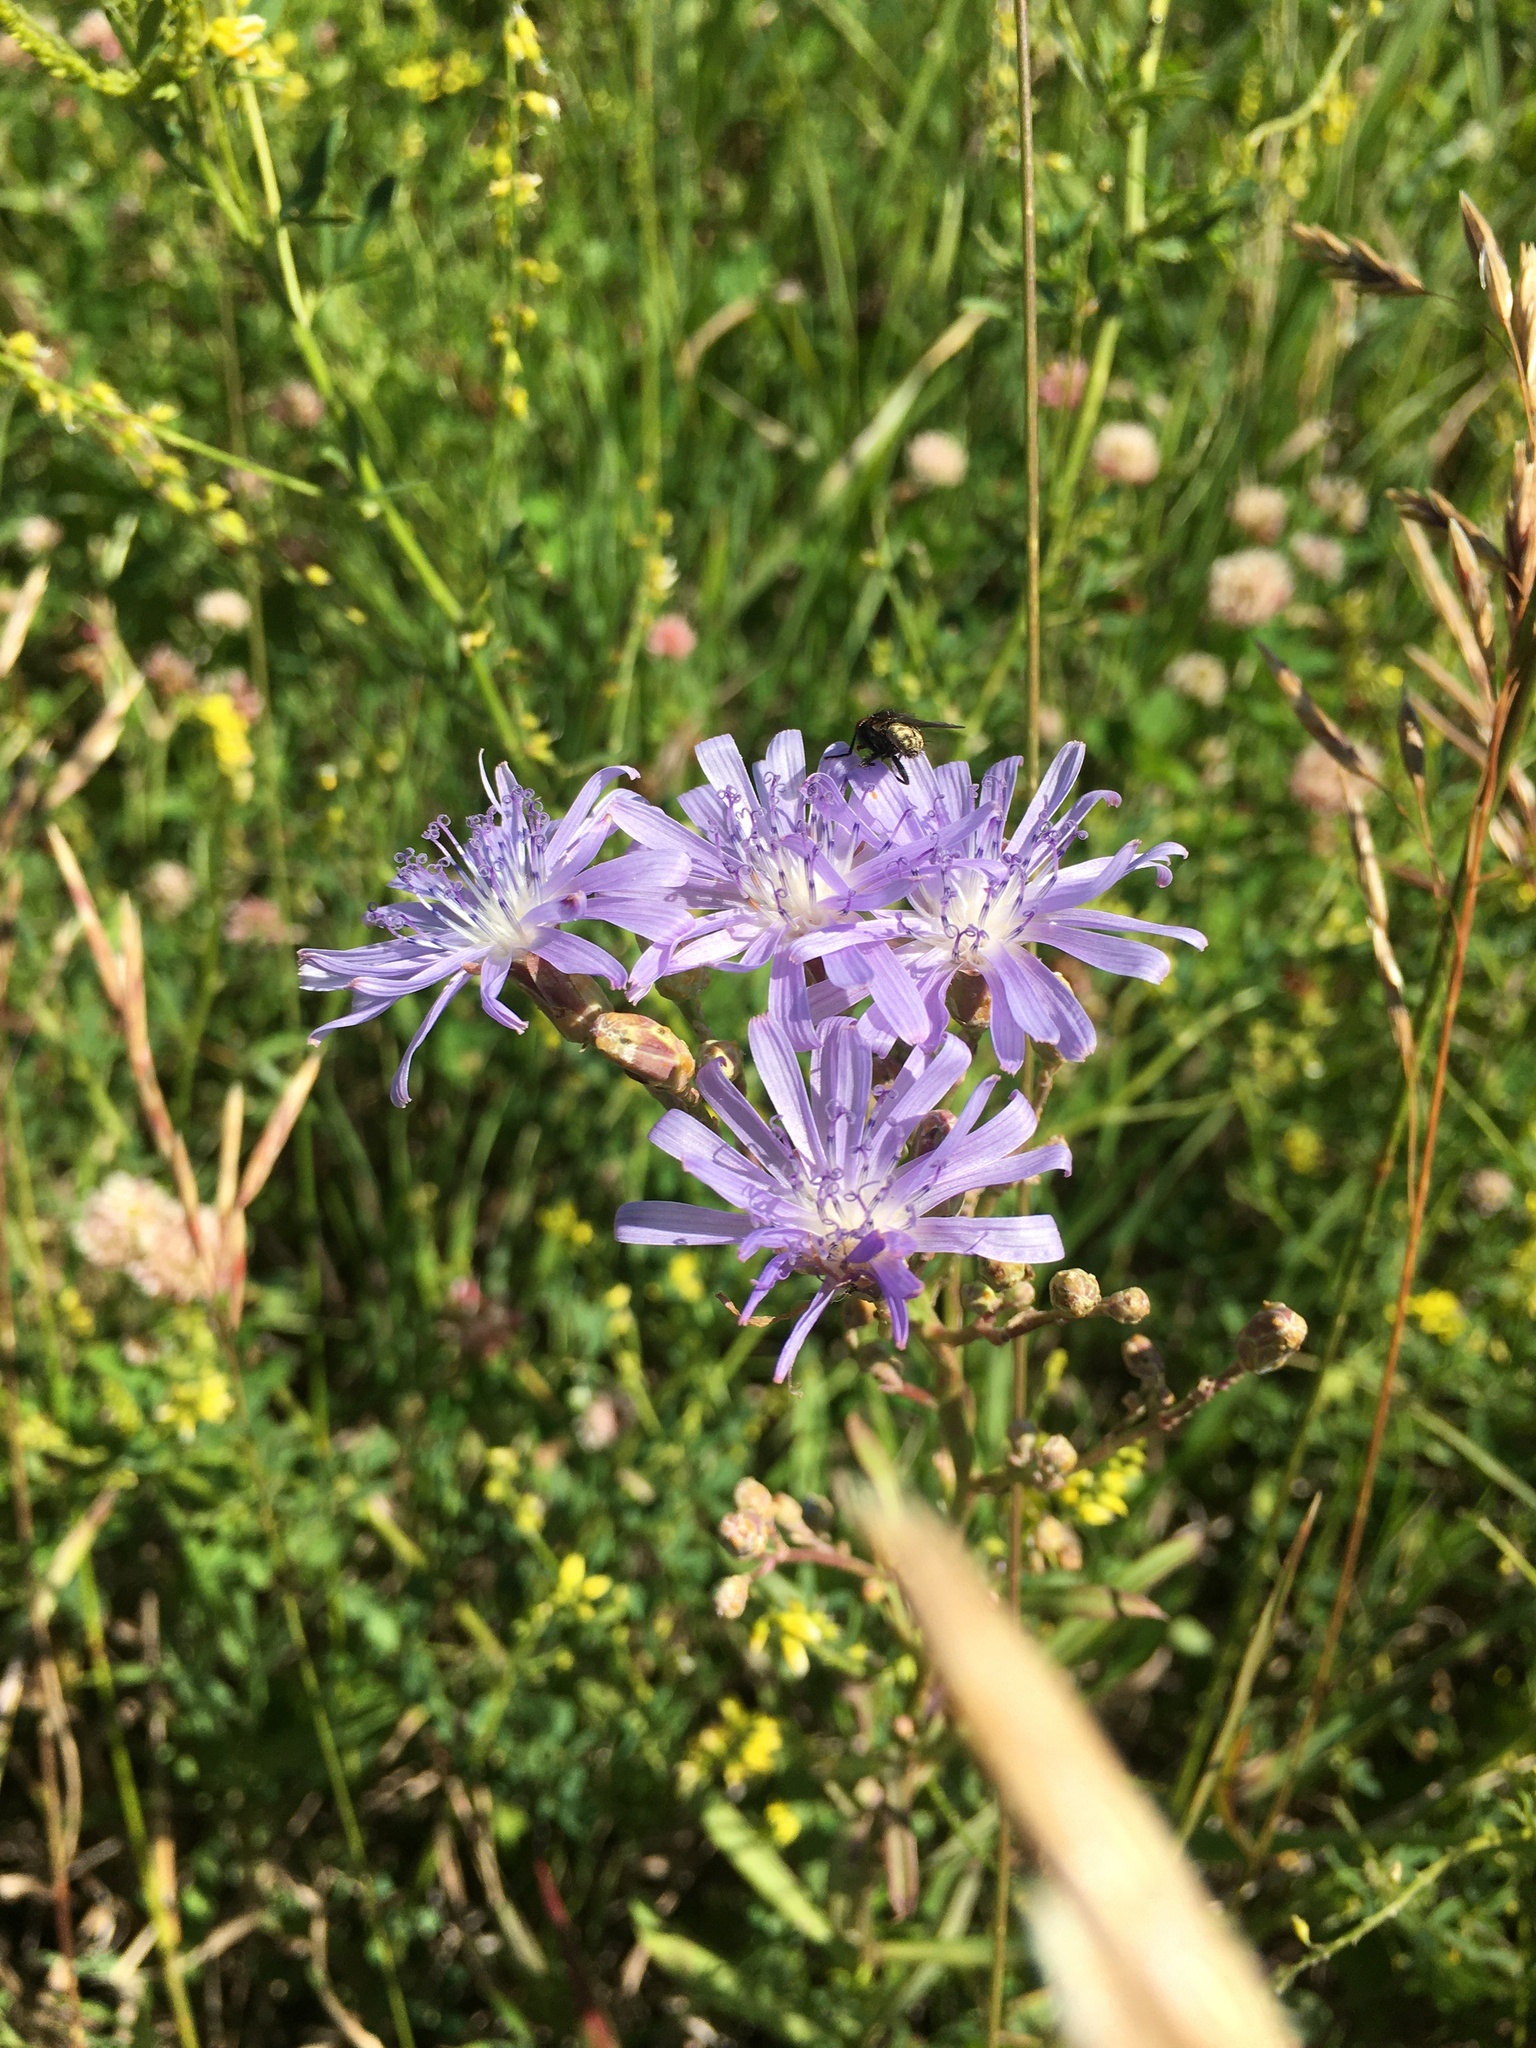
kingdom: Plantae
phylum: Tracheophyta
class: Magnoliopsida
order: Asterales
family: Asteraceae
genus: Lactuca
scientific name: Lactuca pulchella
